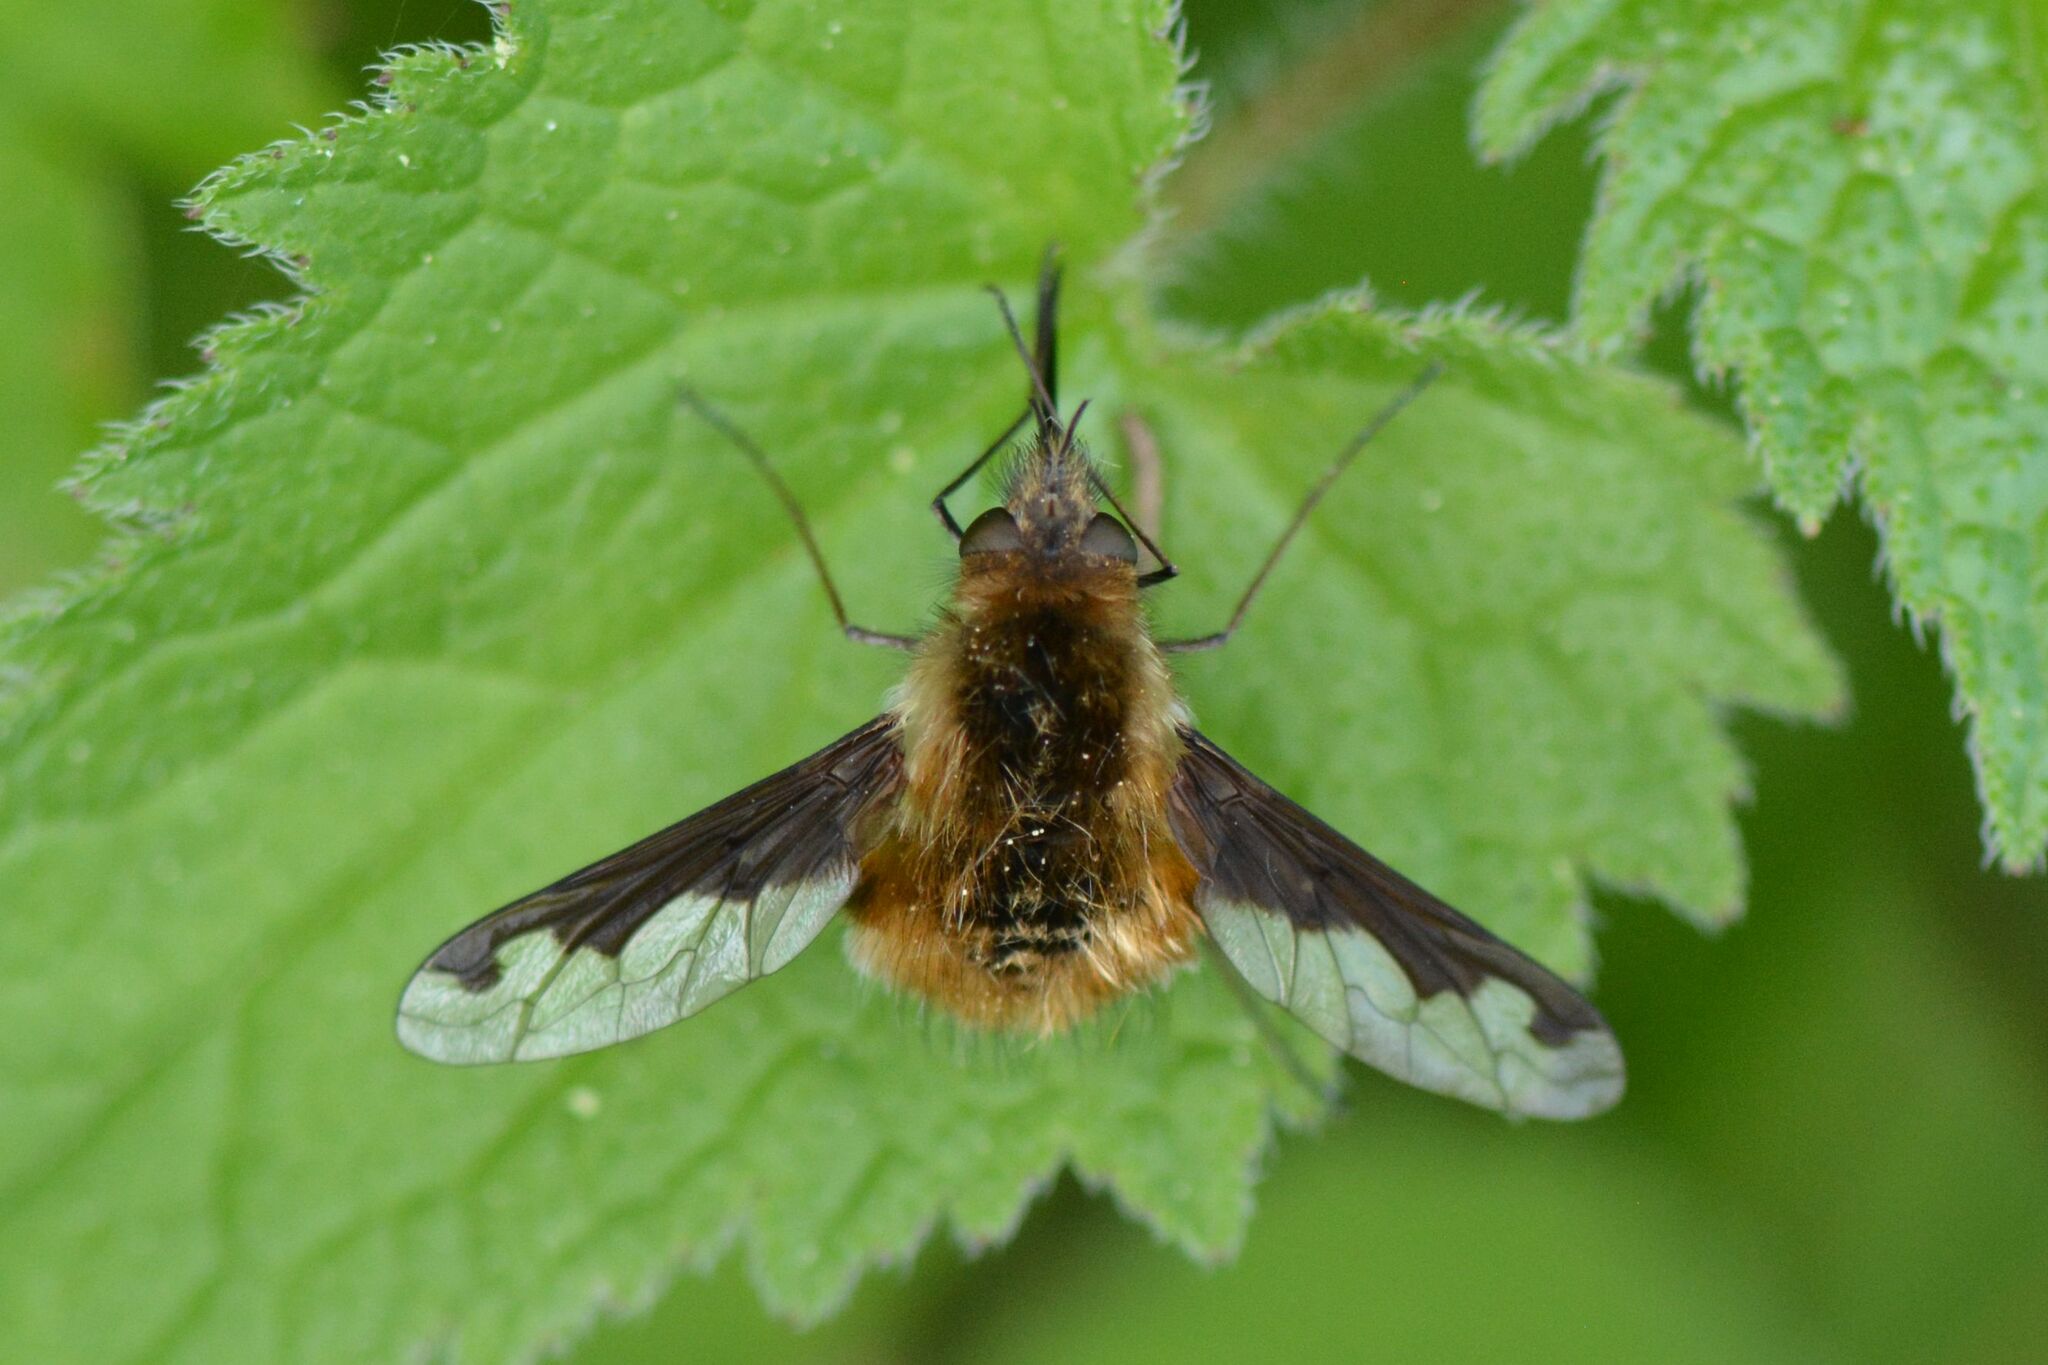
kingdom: Animalia
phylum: Arthropoda
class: Insecta
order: Diptera
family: Bombyliidae
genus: Bombylius
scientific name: Bombylius major
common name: Bee fly
